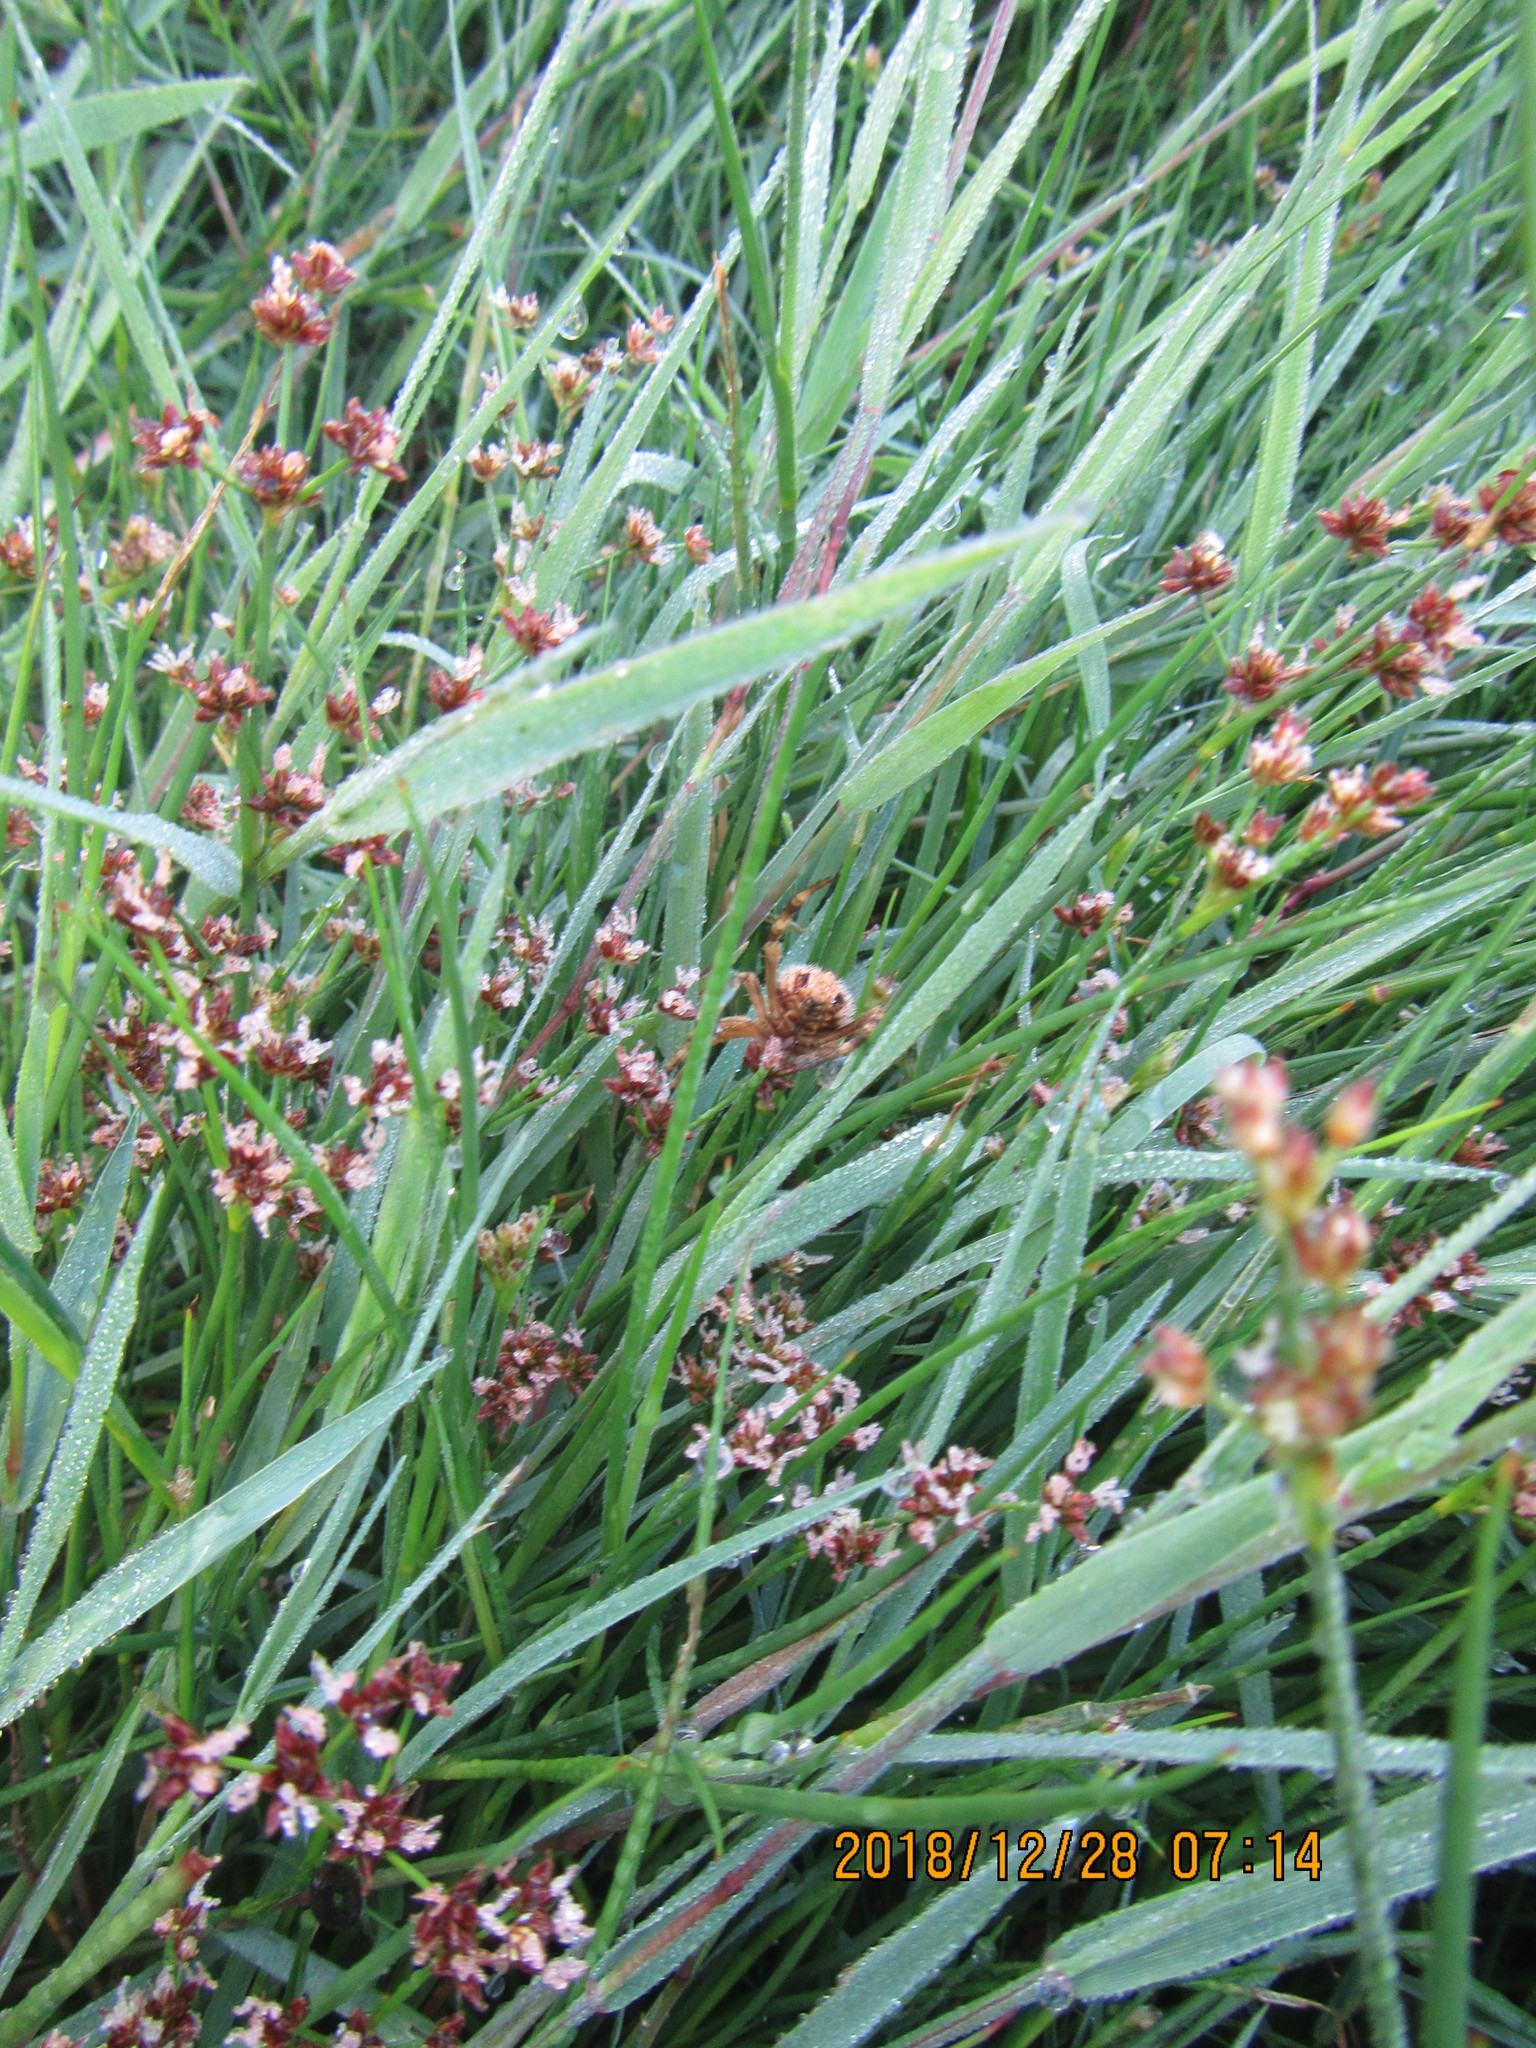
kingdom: Animalia
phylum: Arthropoda
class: Arachnida
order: Araneae
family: Araneidae
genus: Backobourkia
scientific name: Backobourkia brouni
